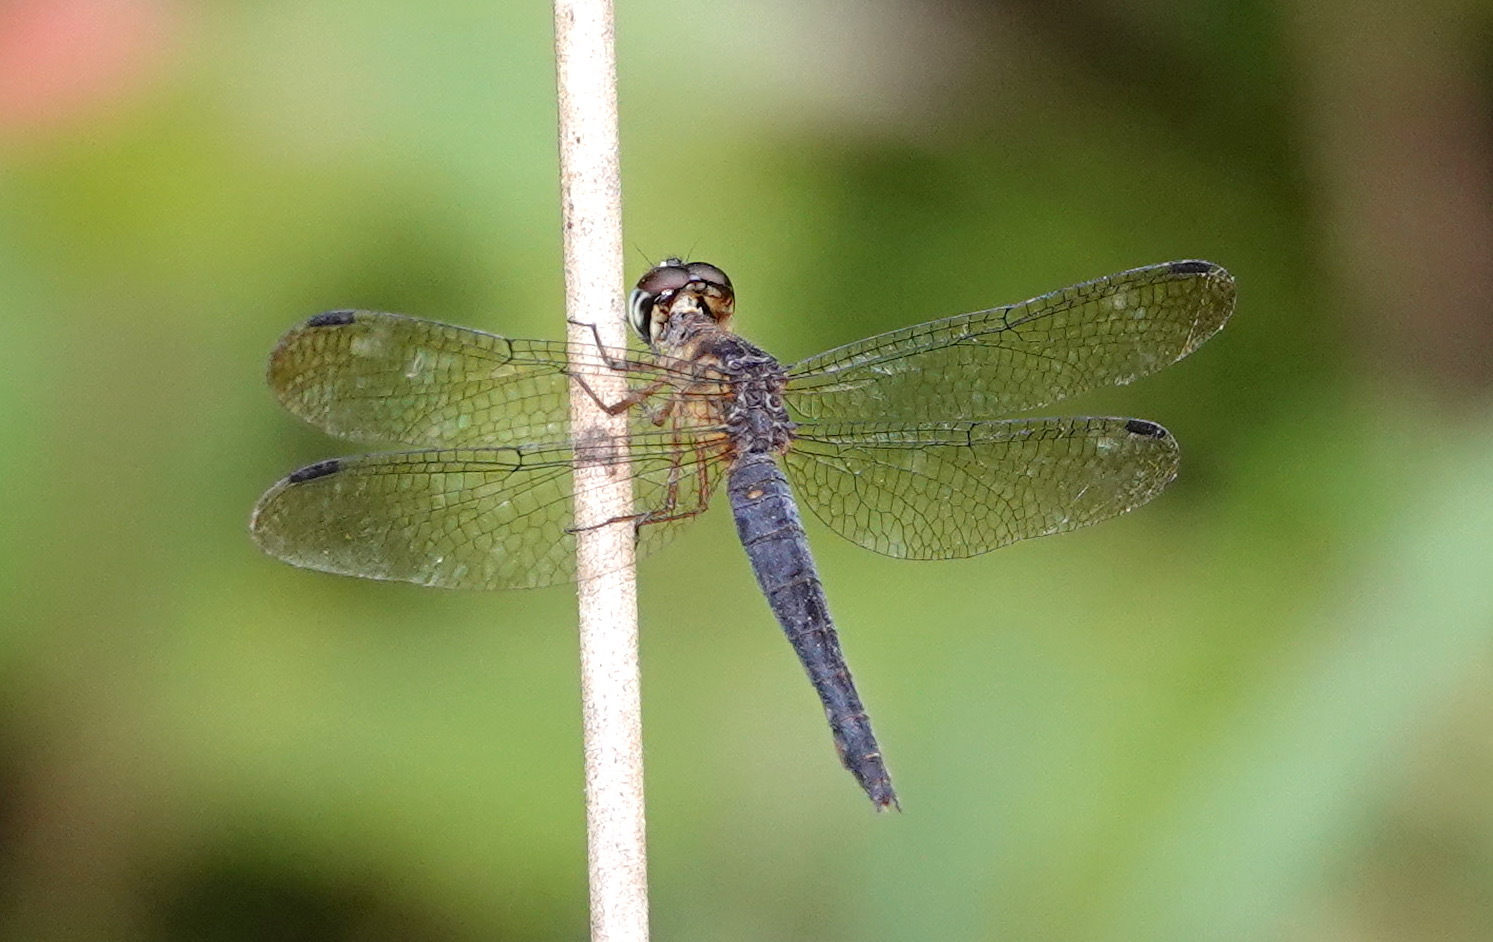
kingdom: Animalia
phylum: Arthropoda
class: Insecta
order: Odonata
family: Libellulidae
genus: Orchithemis
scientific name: Orchithemis pulcherrima
